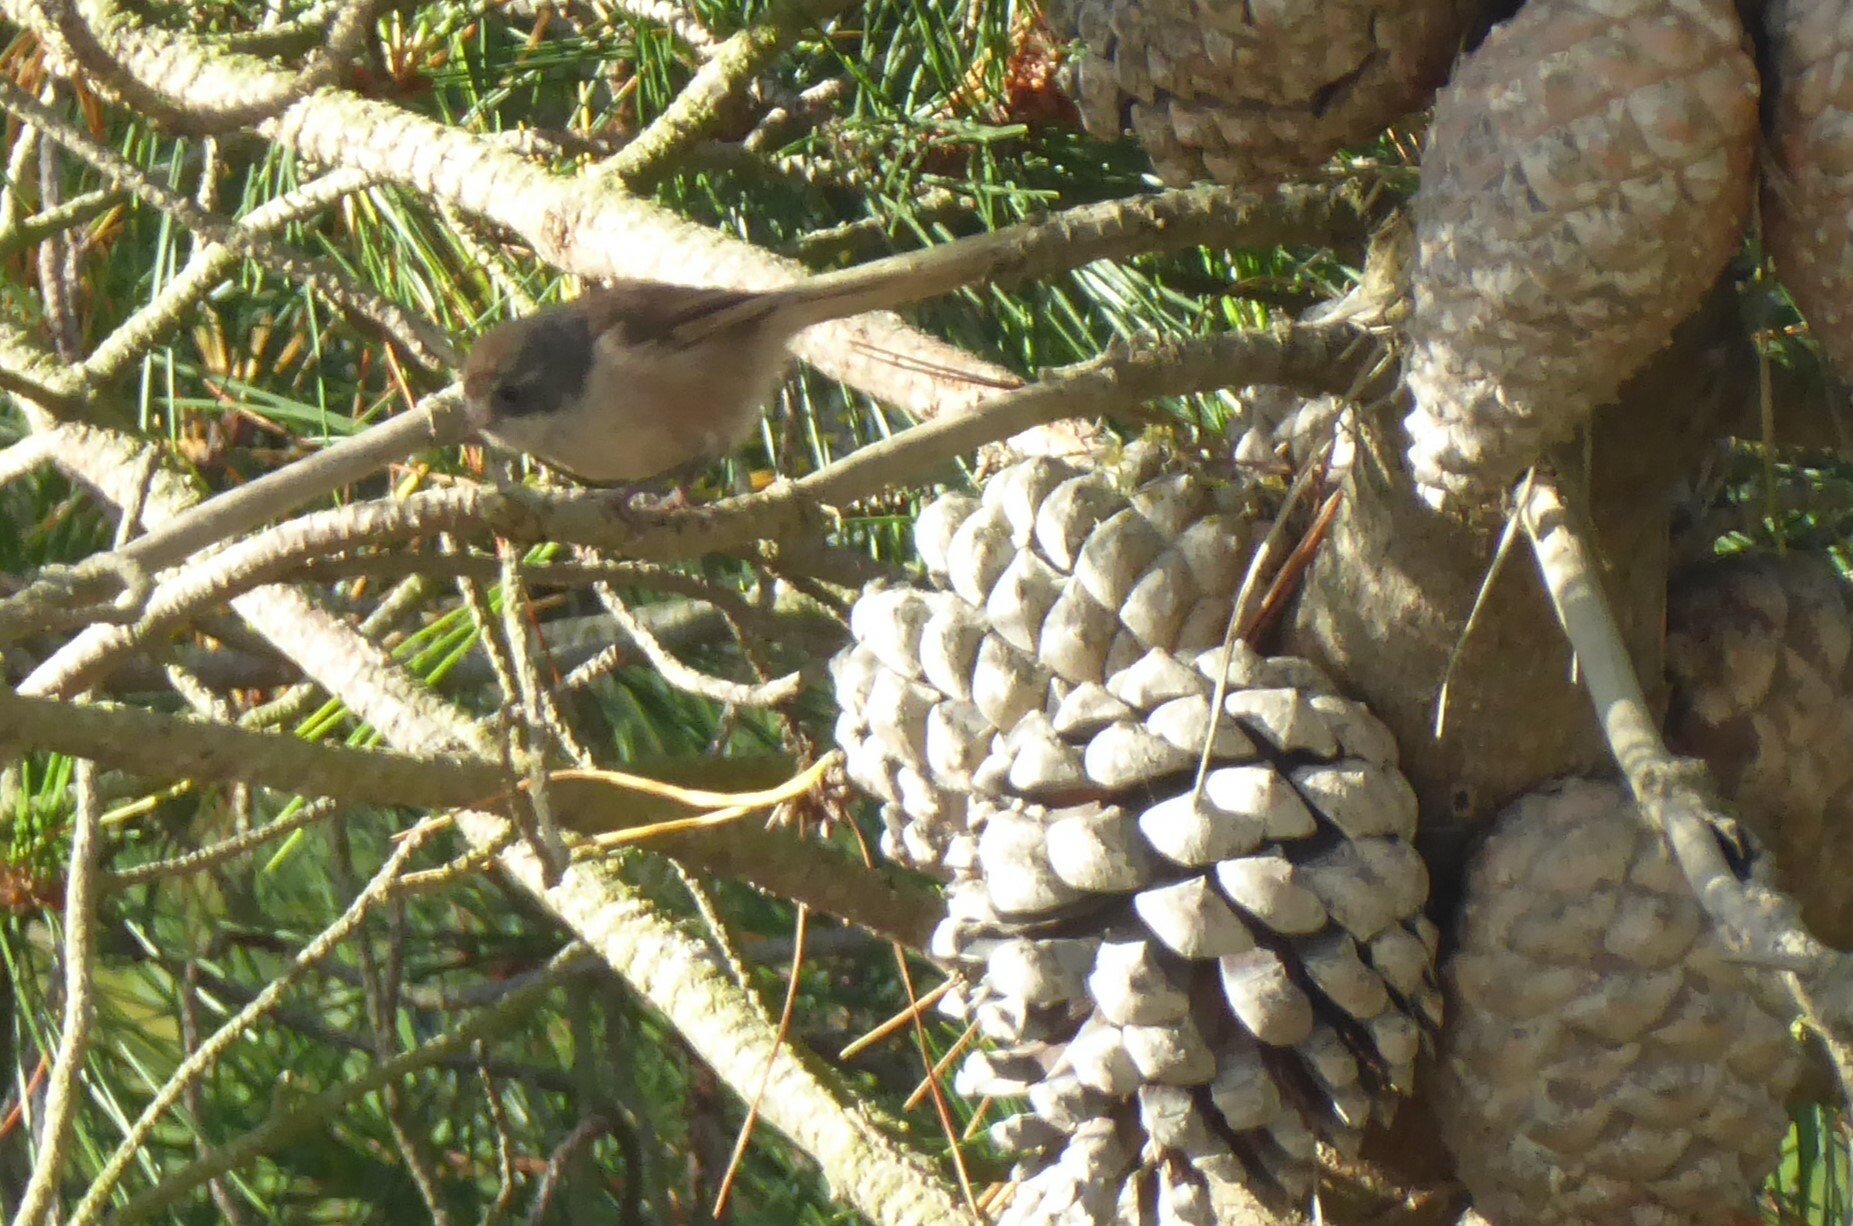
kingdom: Animalia
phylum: Chordata
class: Aves
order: Passeriformes
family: Acanthizidae
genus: Finschia
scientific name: Finschia novaeseelandiae
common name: Pipipi
